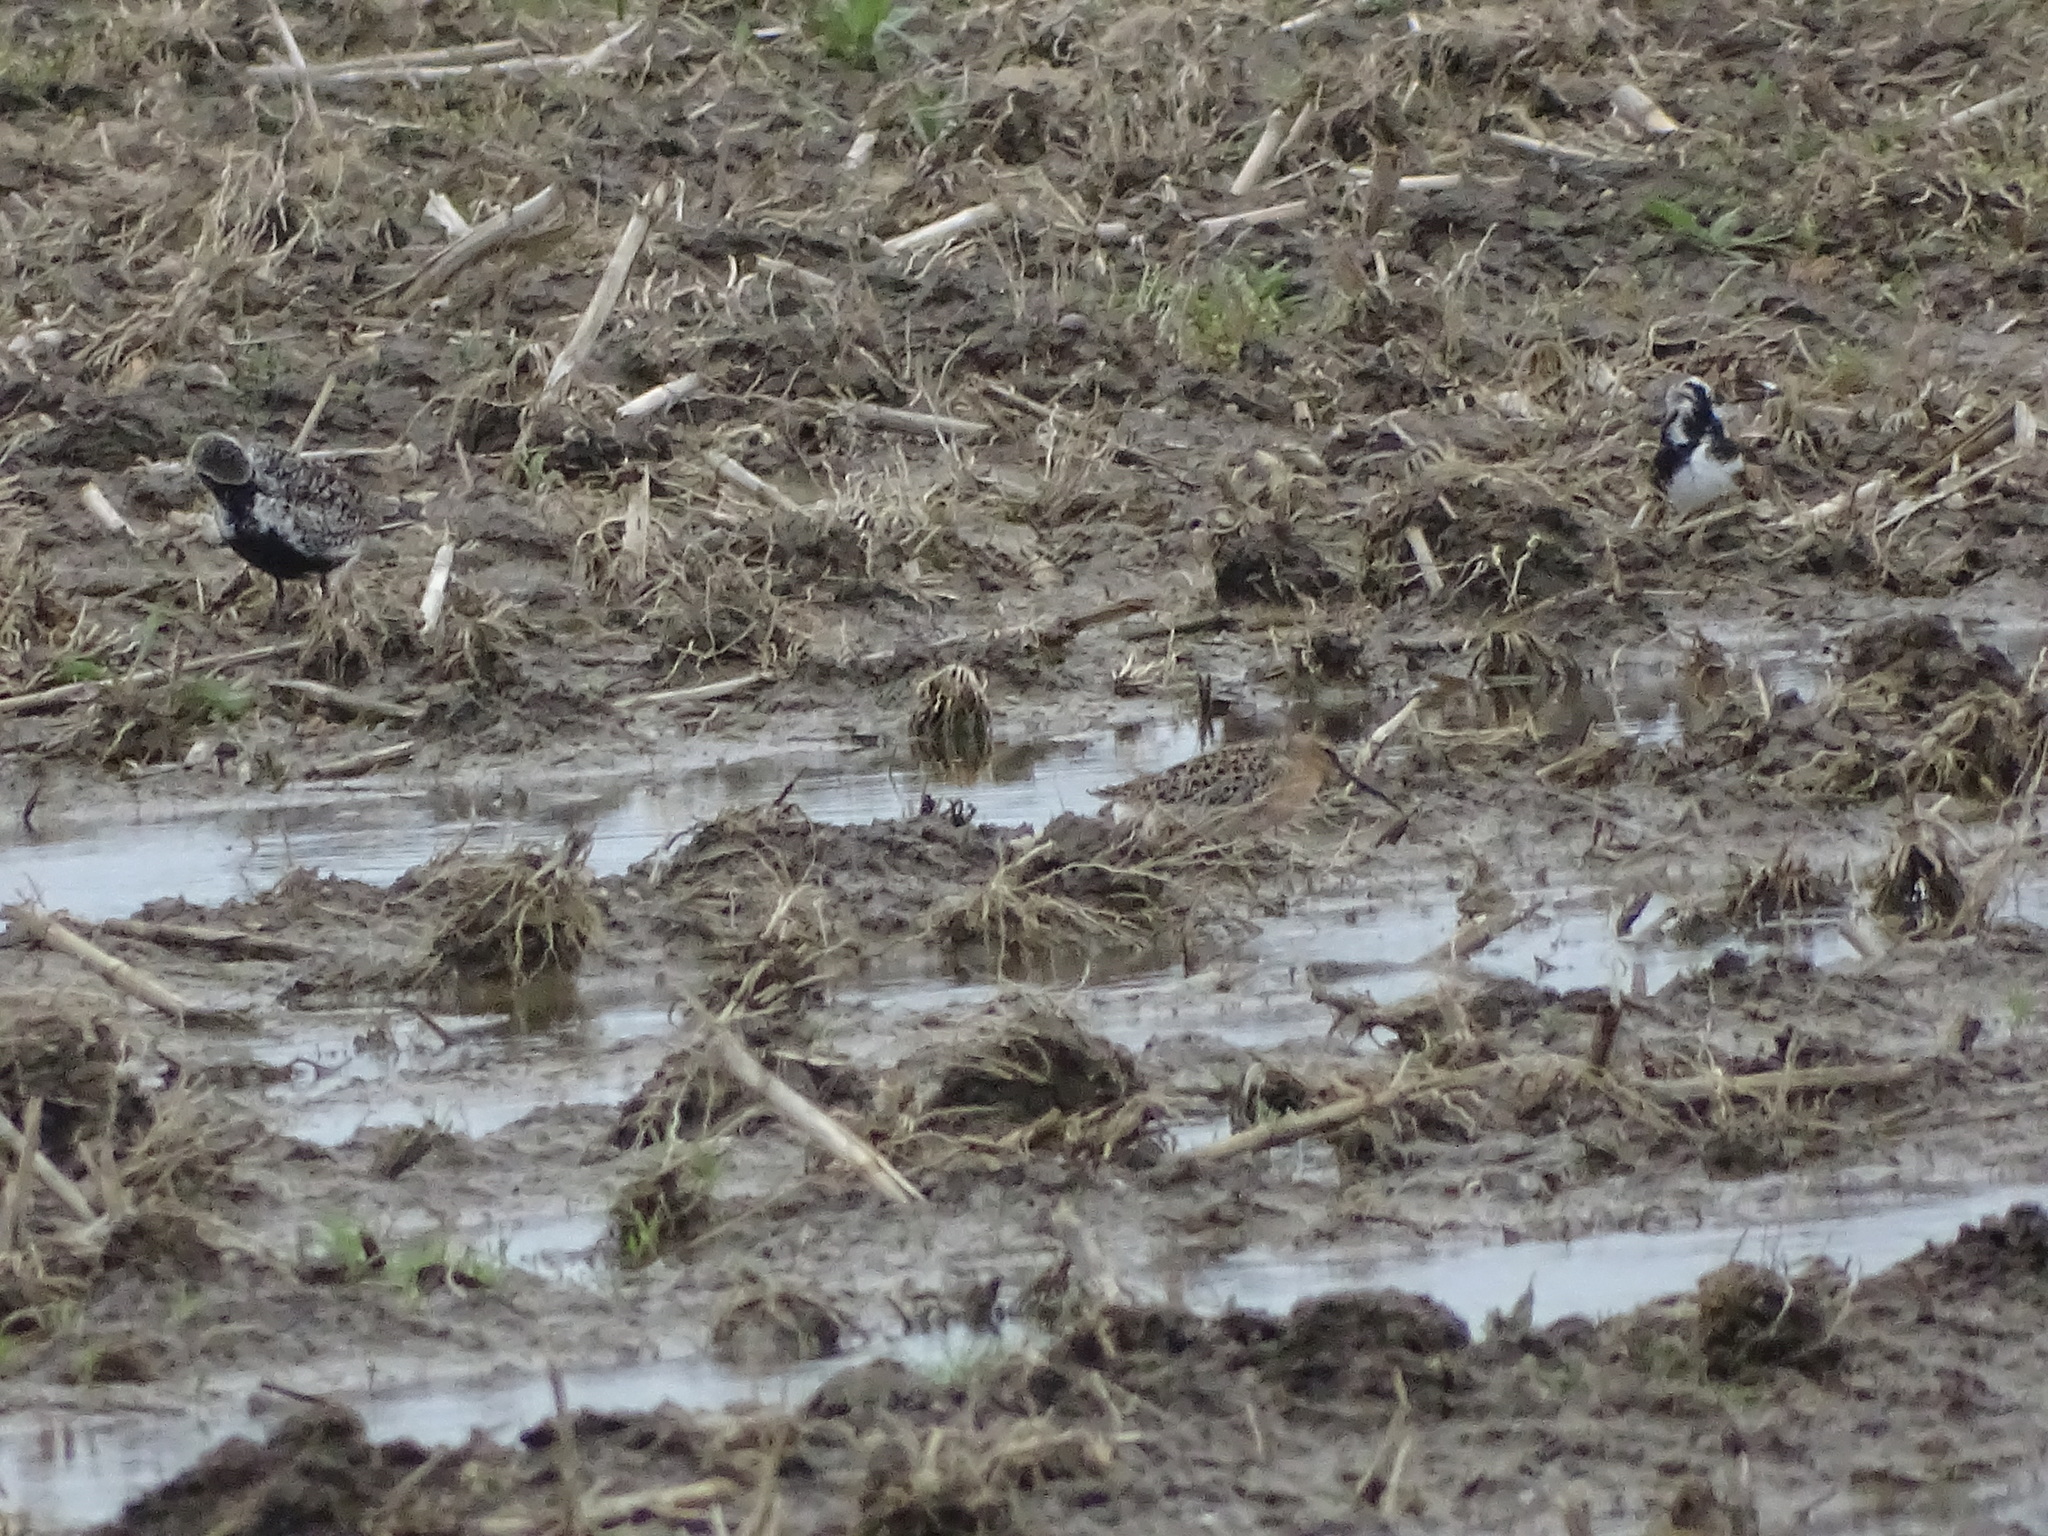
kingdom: Animalia
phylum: Chordata
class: Aves
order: Charadriiformes
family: Charadriidae
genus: Pluvialis
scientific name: Pluvialis dominica
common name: American golden plover
